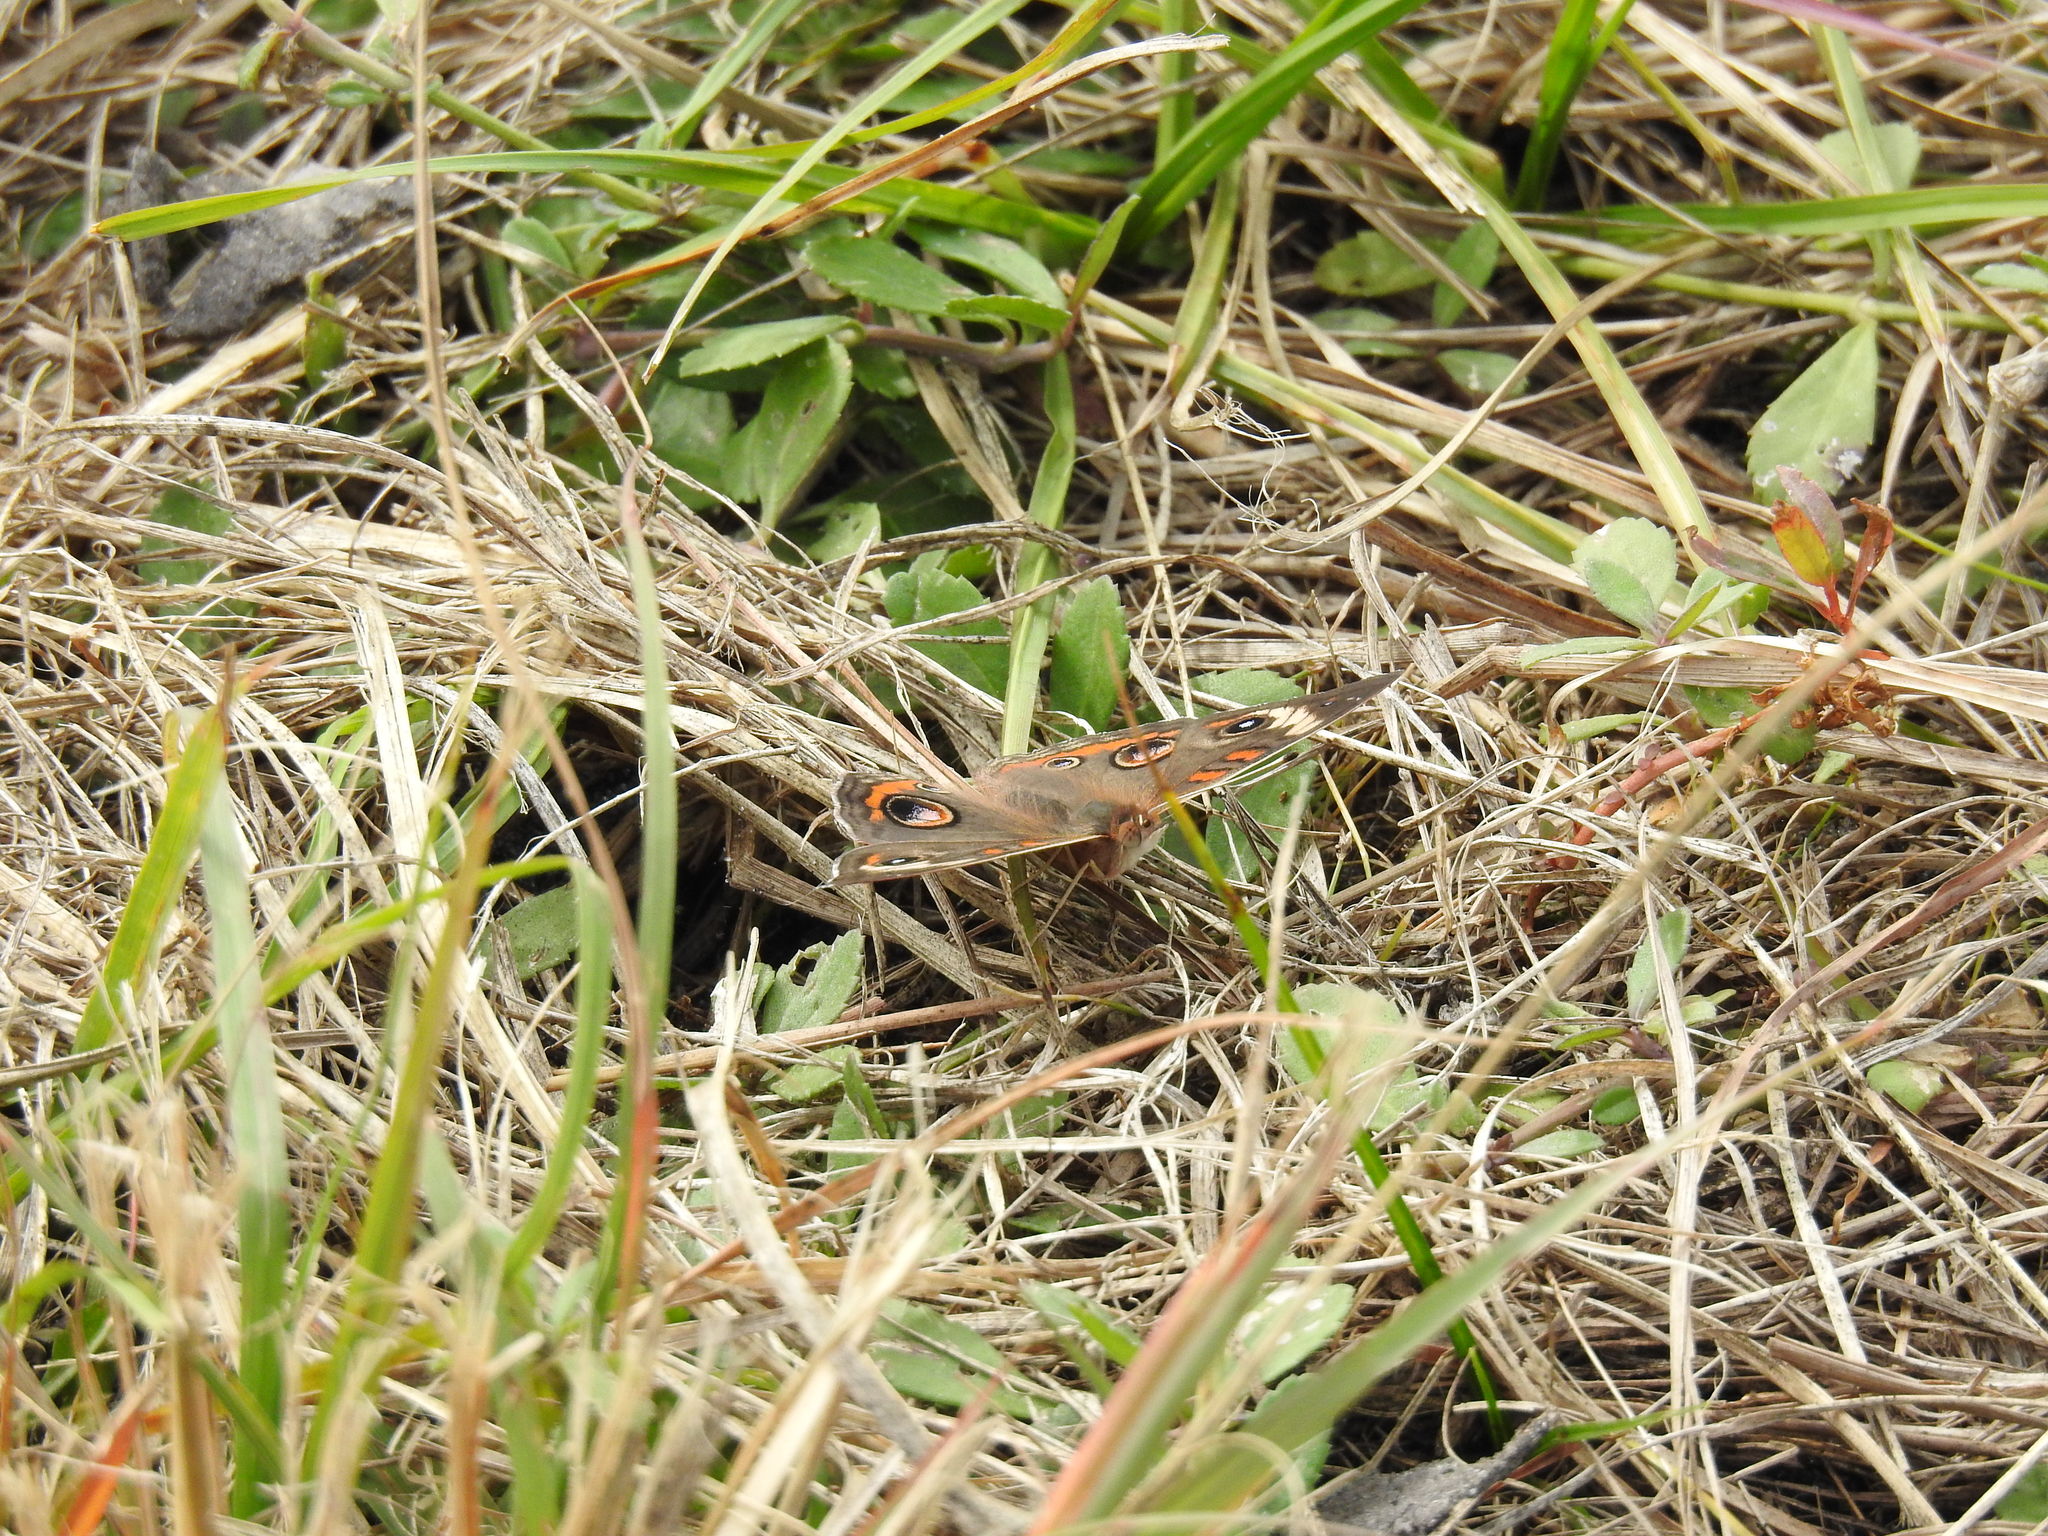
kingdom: Animalia
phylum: Arthropoda
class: Insecta
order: Lepidoptera
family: Nymphalidae
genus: Junonia
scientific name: Junonia coenia
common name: Common buckeye
